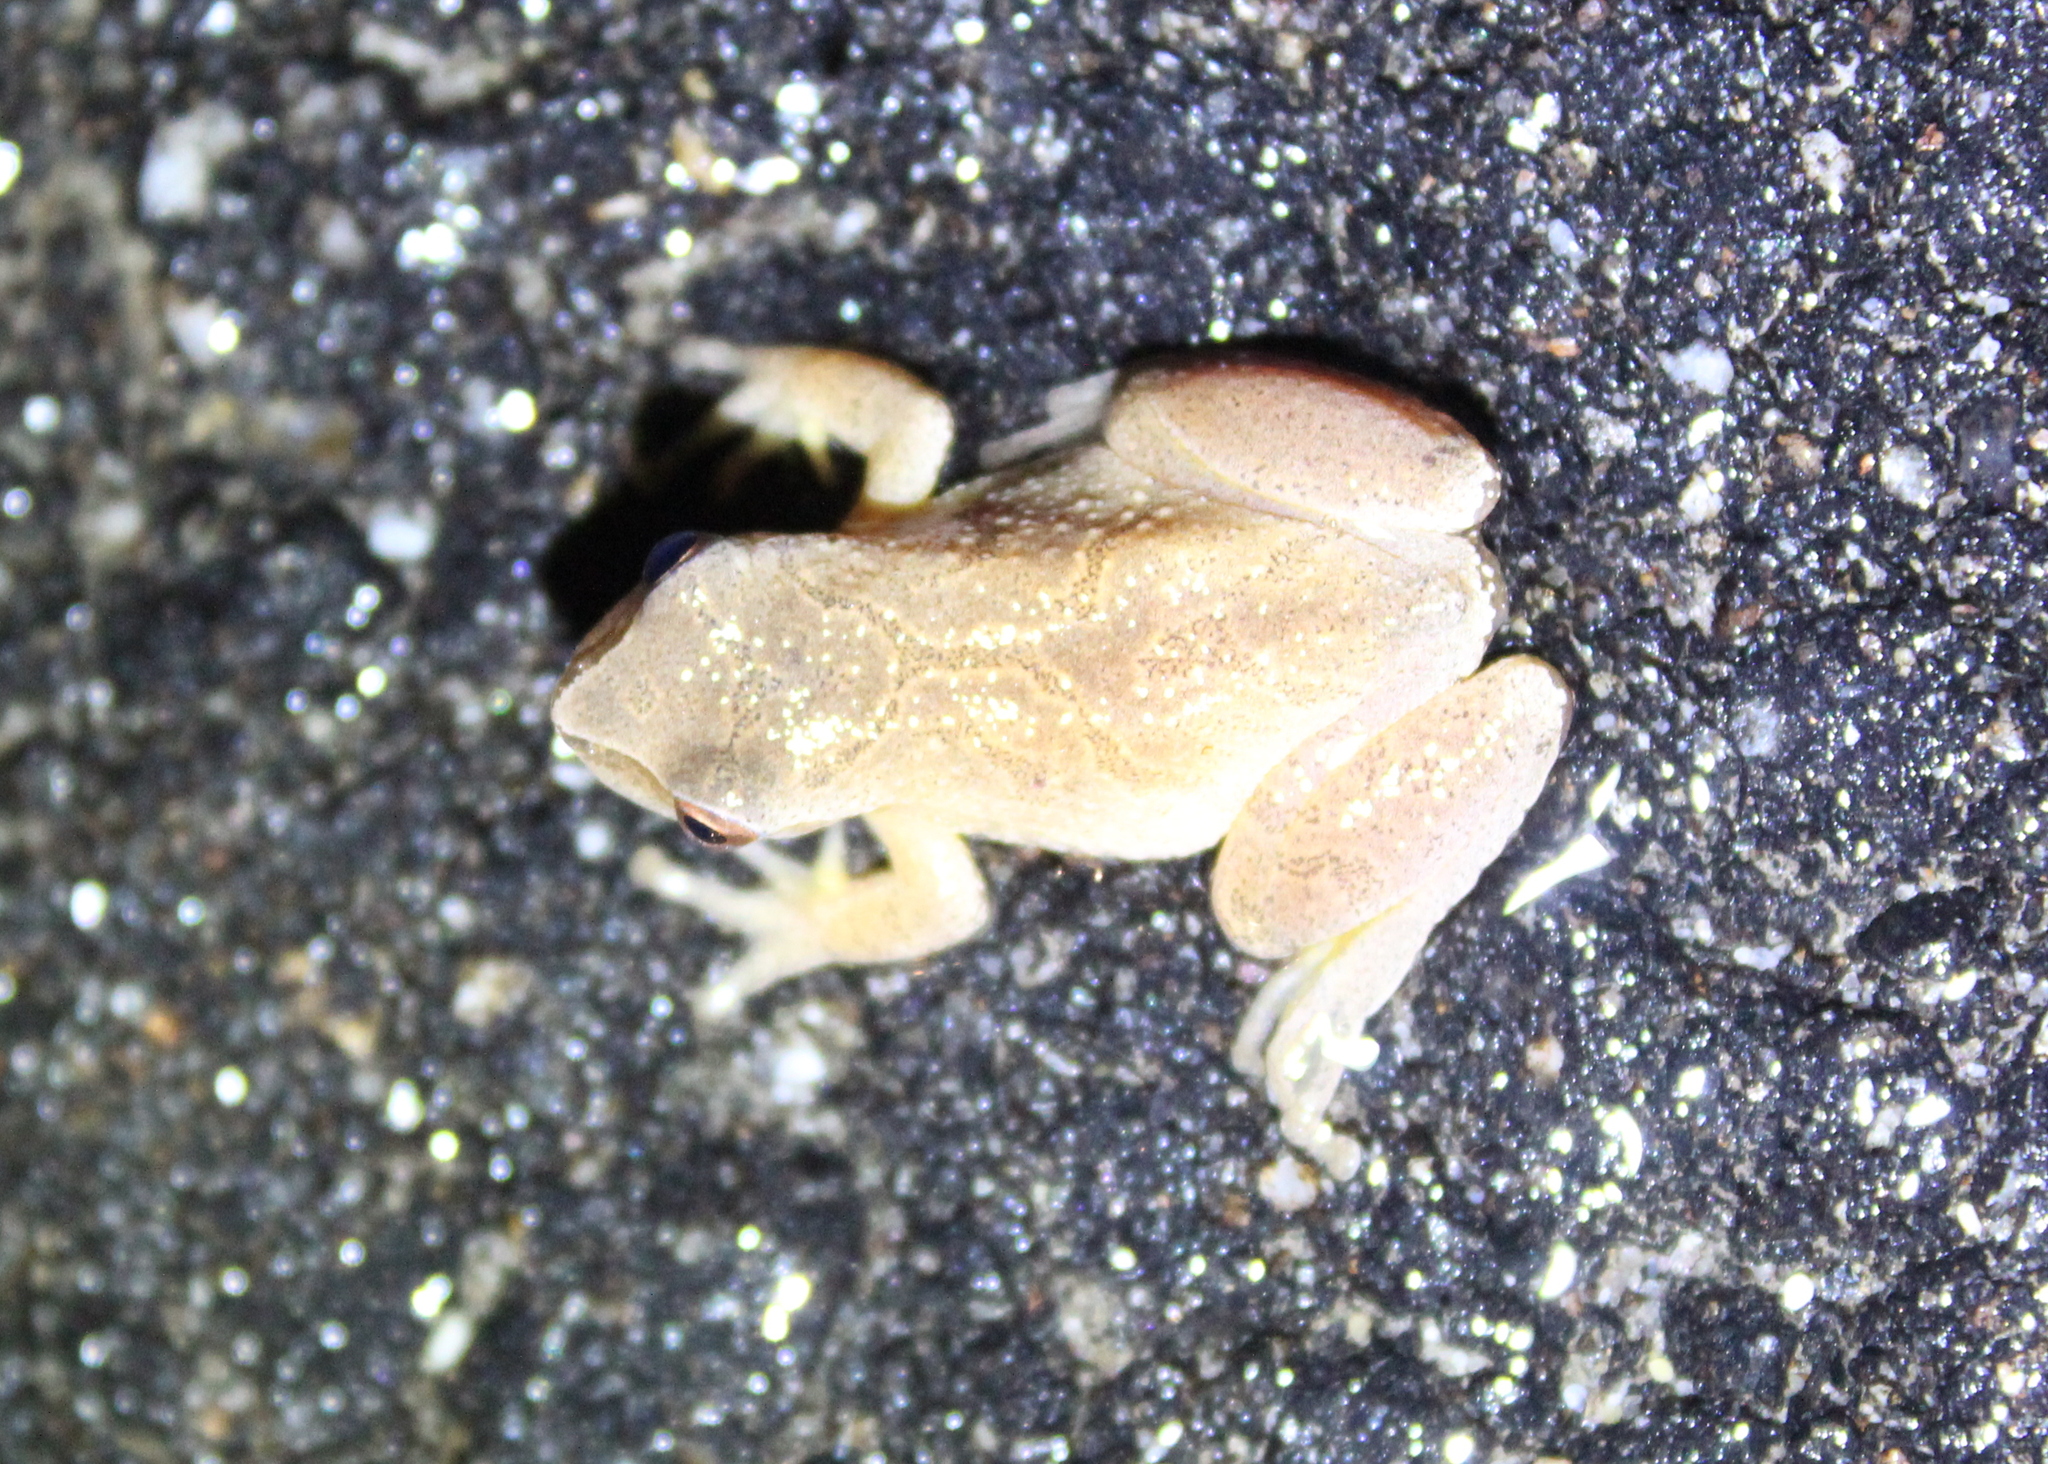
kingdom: Animalia
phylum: Chordata
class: Amphibia
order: Anura
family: Hylidae
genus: Pseudacris
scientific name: Pseudacris crucifer
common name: Spring peeper
